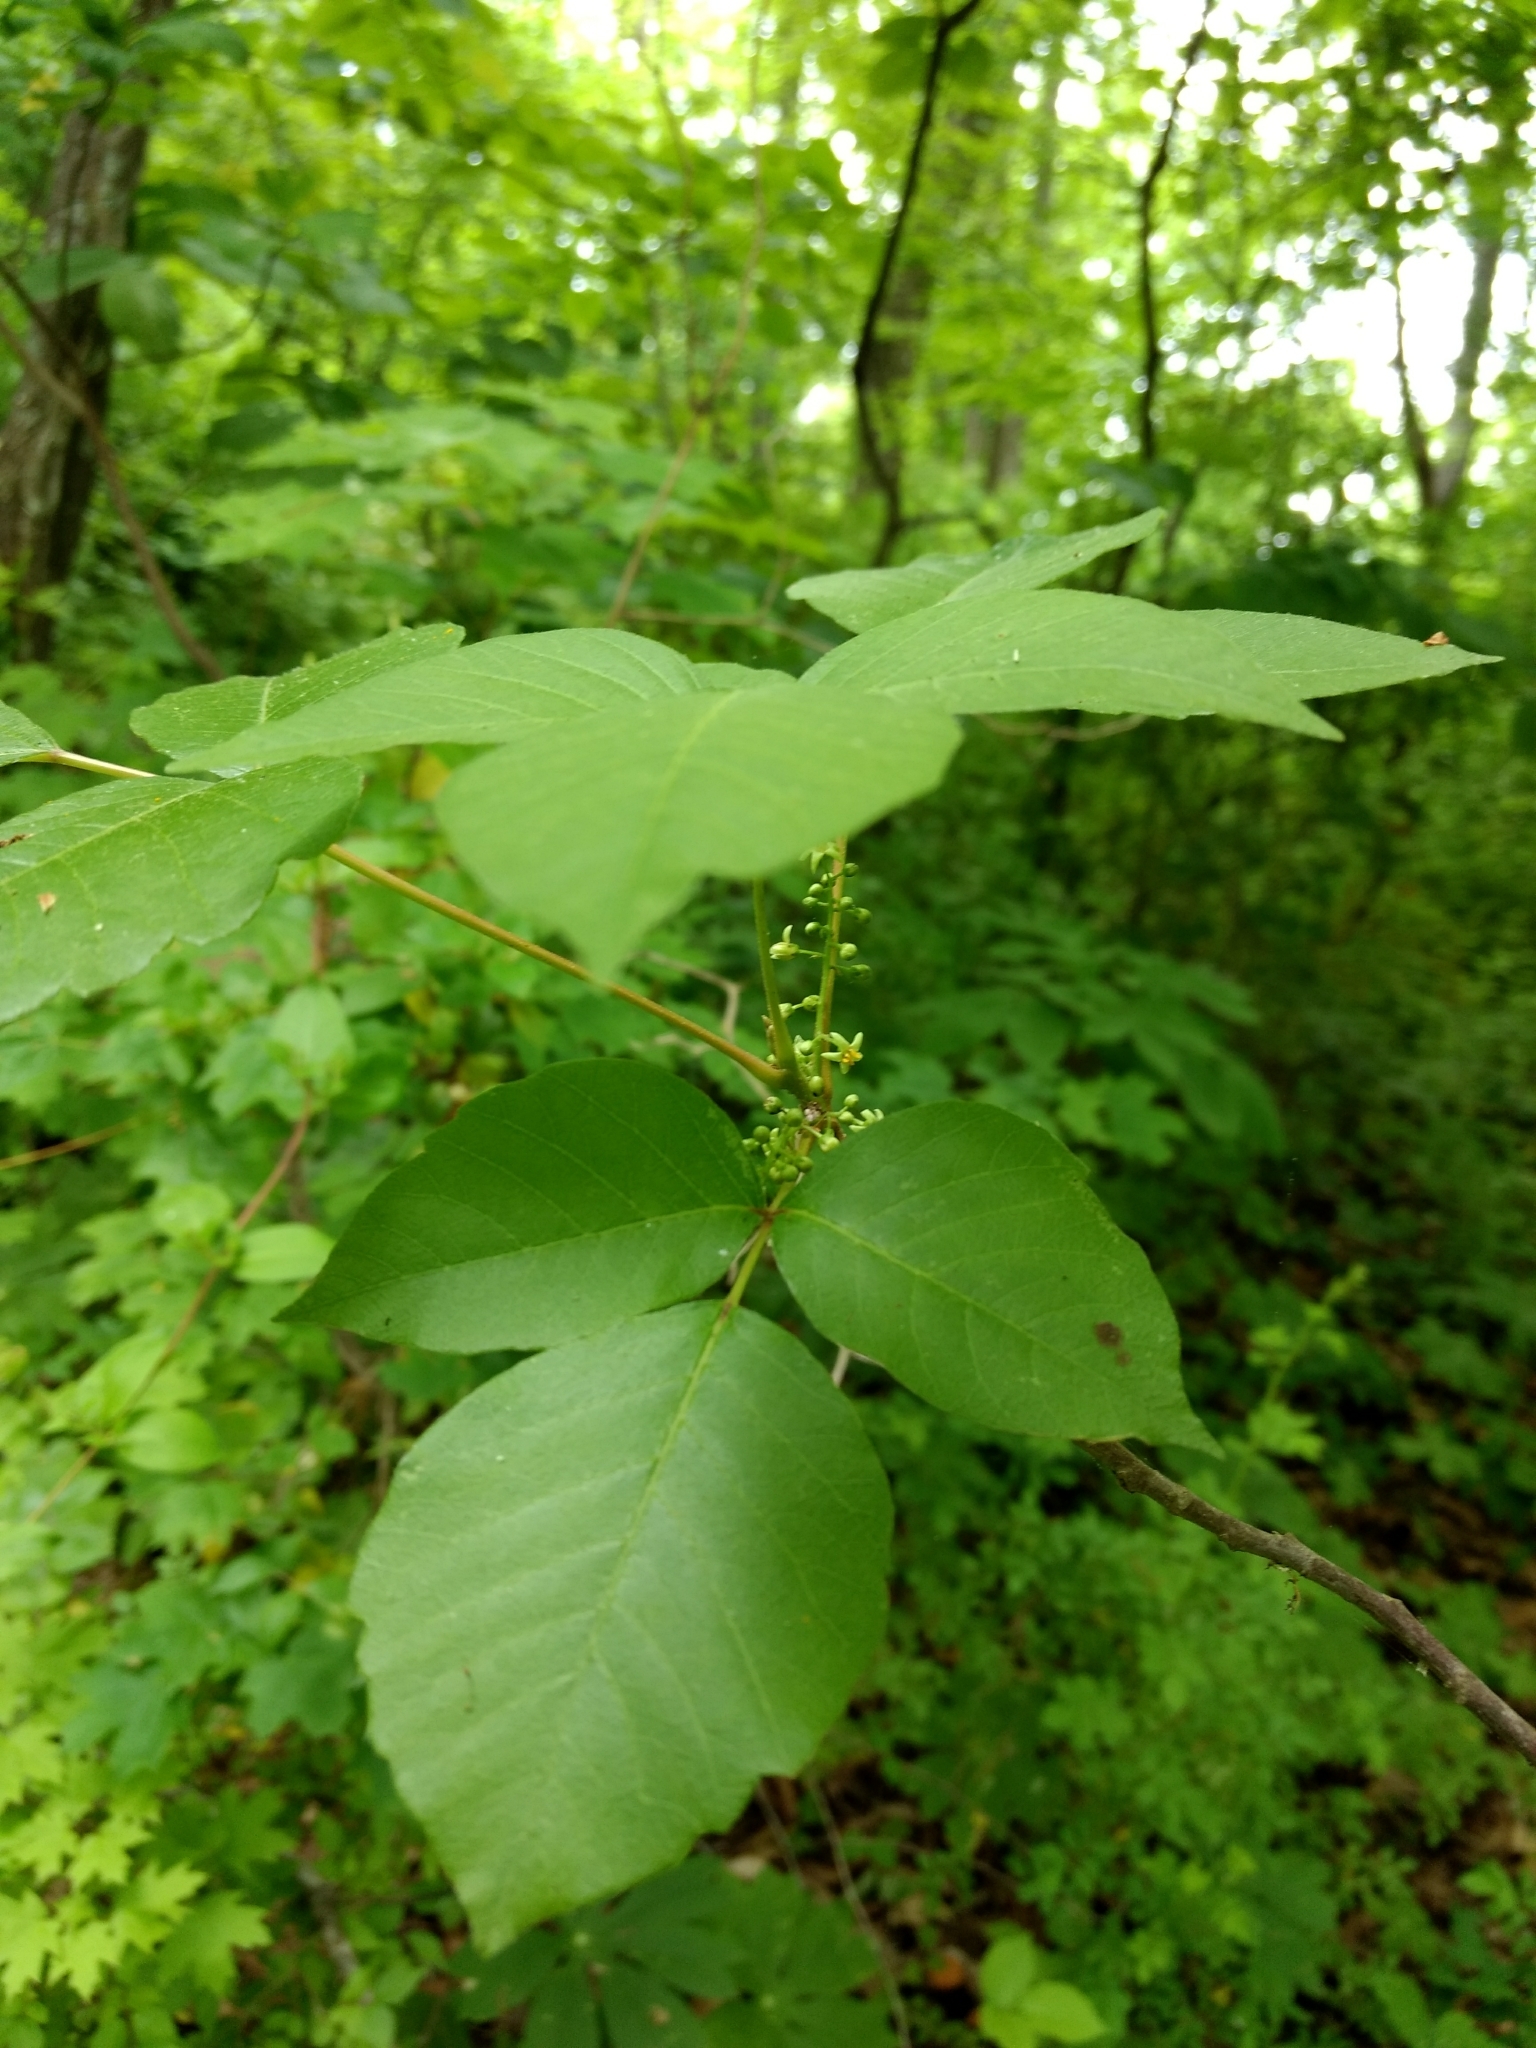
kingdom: Plantae
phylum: Tracheophyta
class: Magnoliopsida
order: Sapindales
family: Anacardiaceae
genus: Toxicodendron
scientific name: Toxicodendron radicans
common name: Poison ivy
